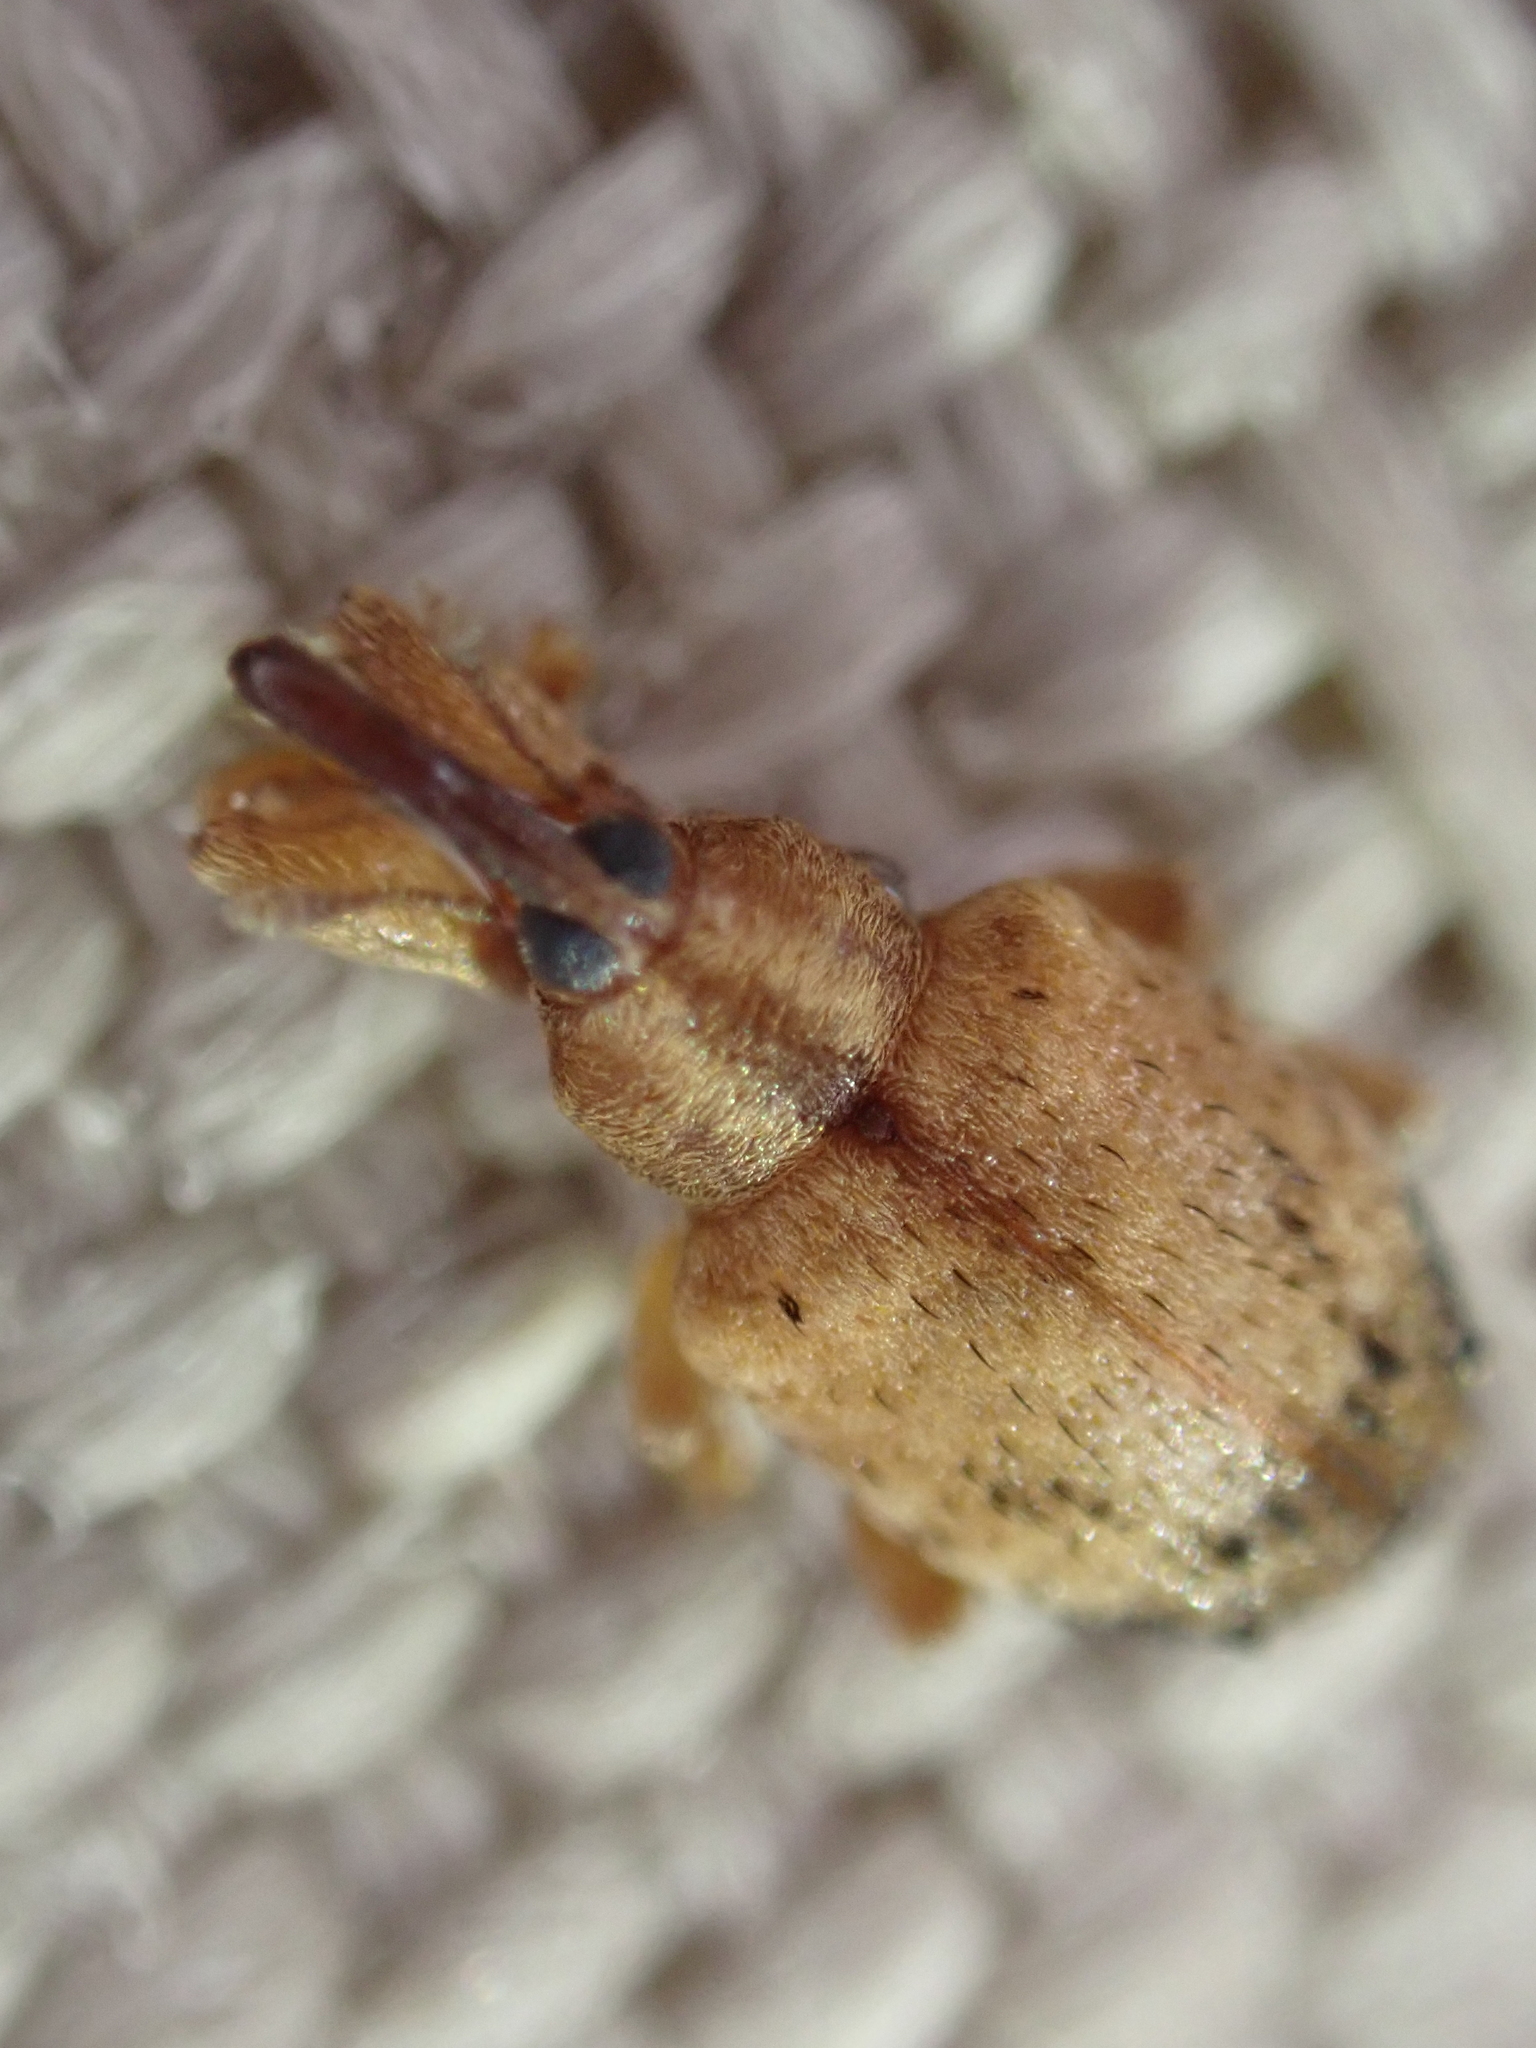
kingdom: Animalia
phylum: Arthropoda
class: Insecta
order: Coleoptera
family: Curculionidae
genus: Ochyromera
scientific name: Ochyromera ligustri
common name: Weevil
